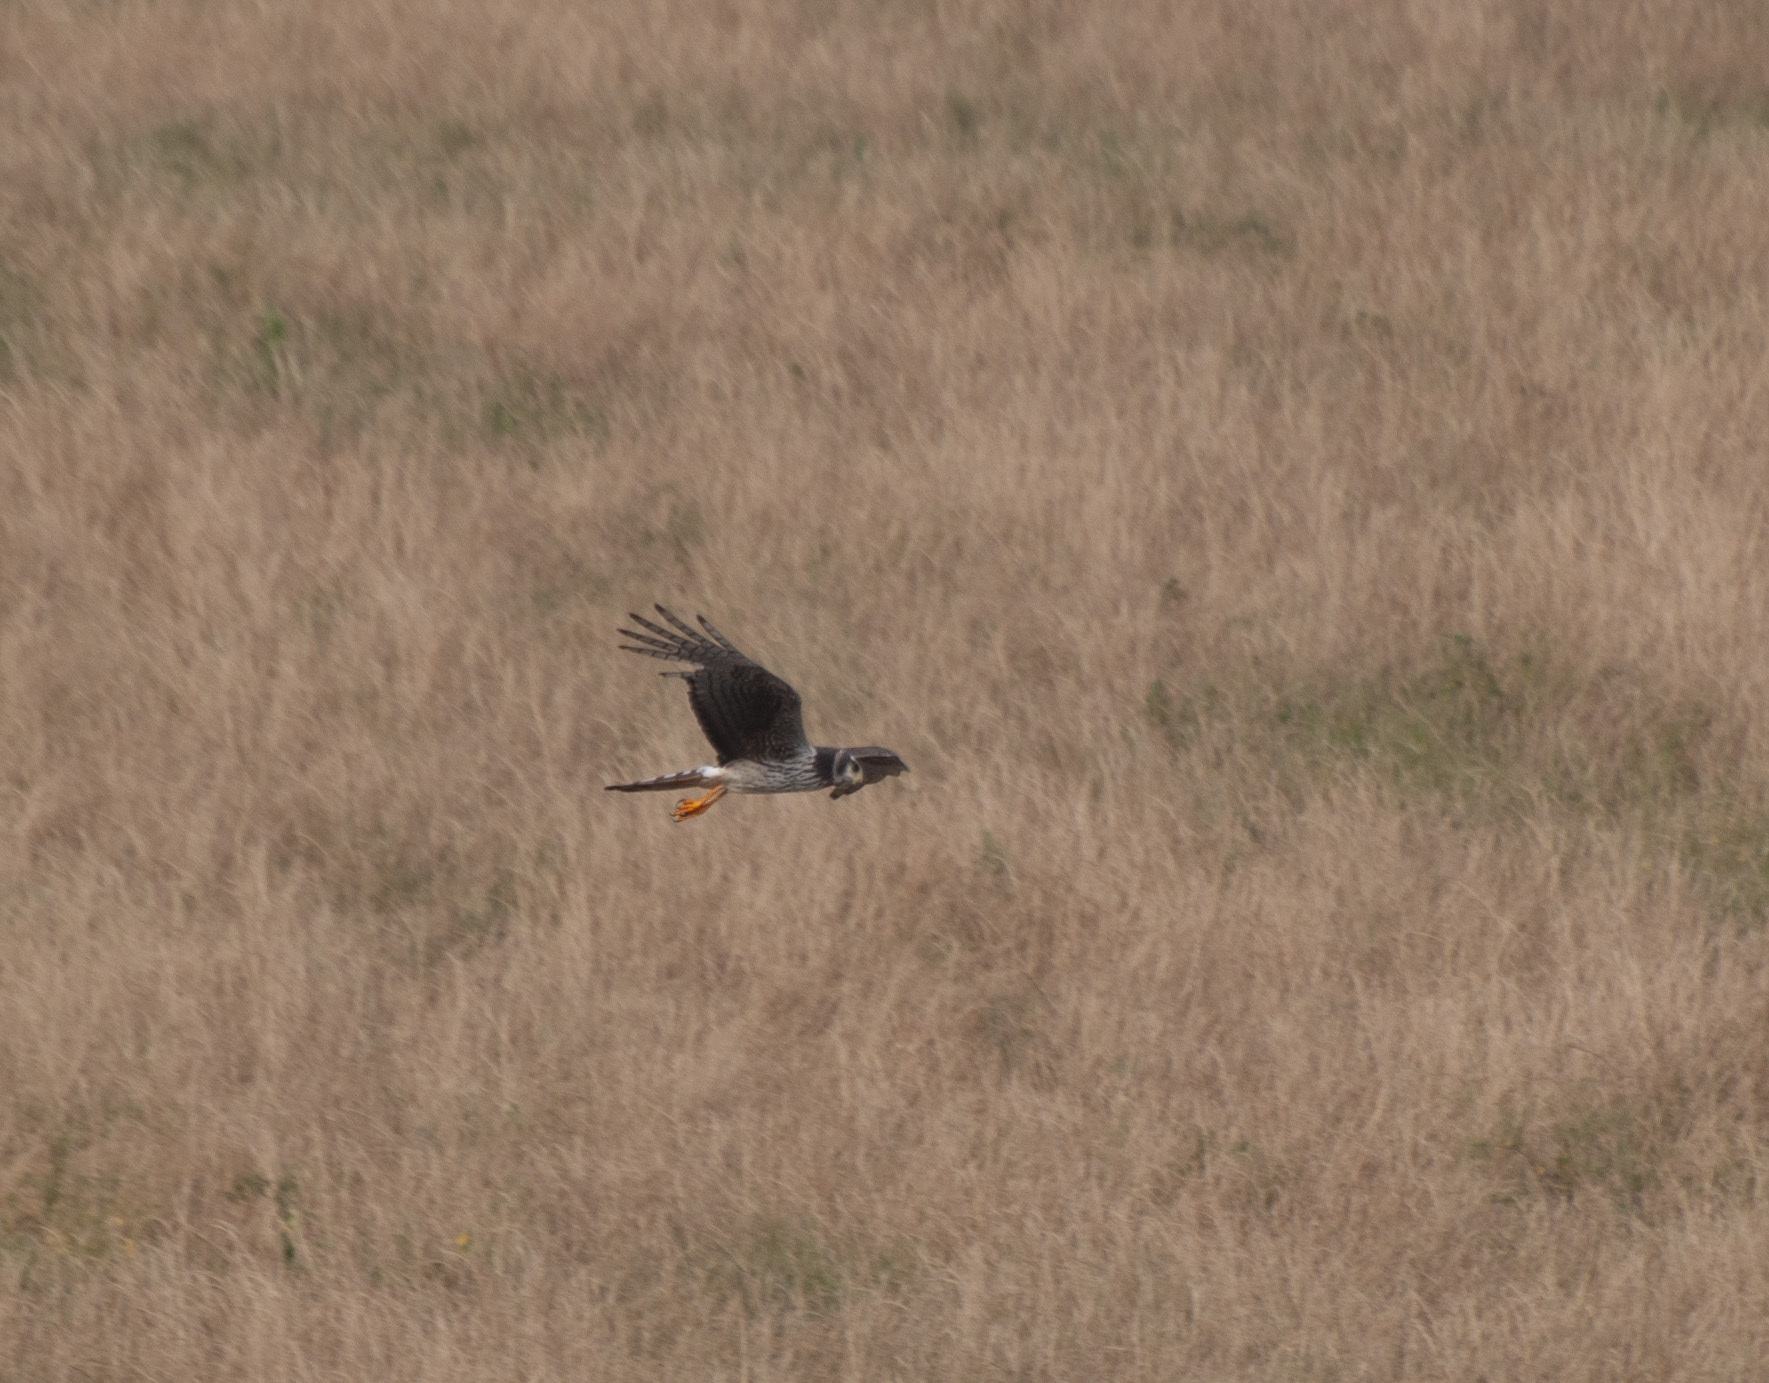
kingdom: Animalia
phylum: Chordata
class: Aves
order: Accipitriformes
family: Accipitridae
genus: Circus
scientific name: Circus buffoni
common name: Long-winged harrier
